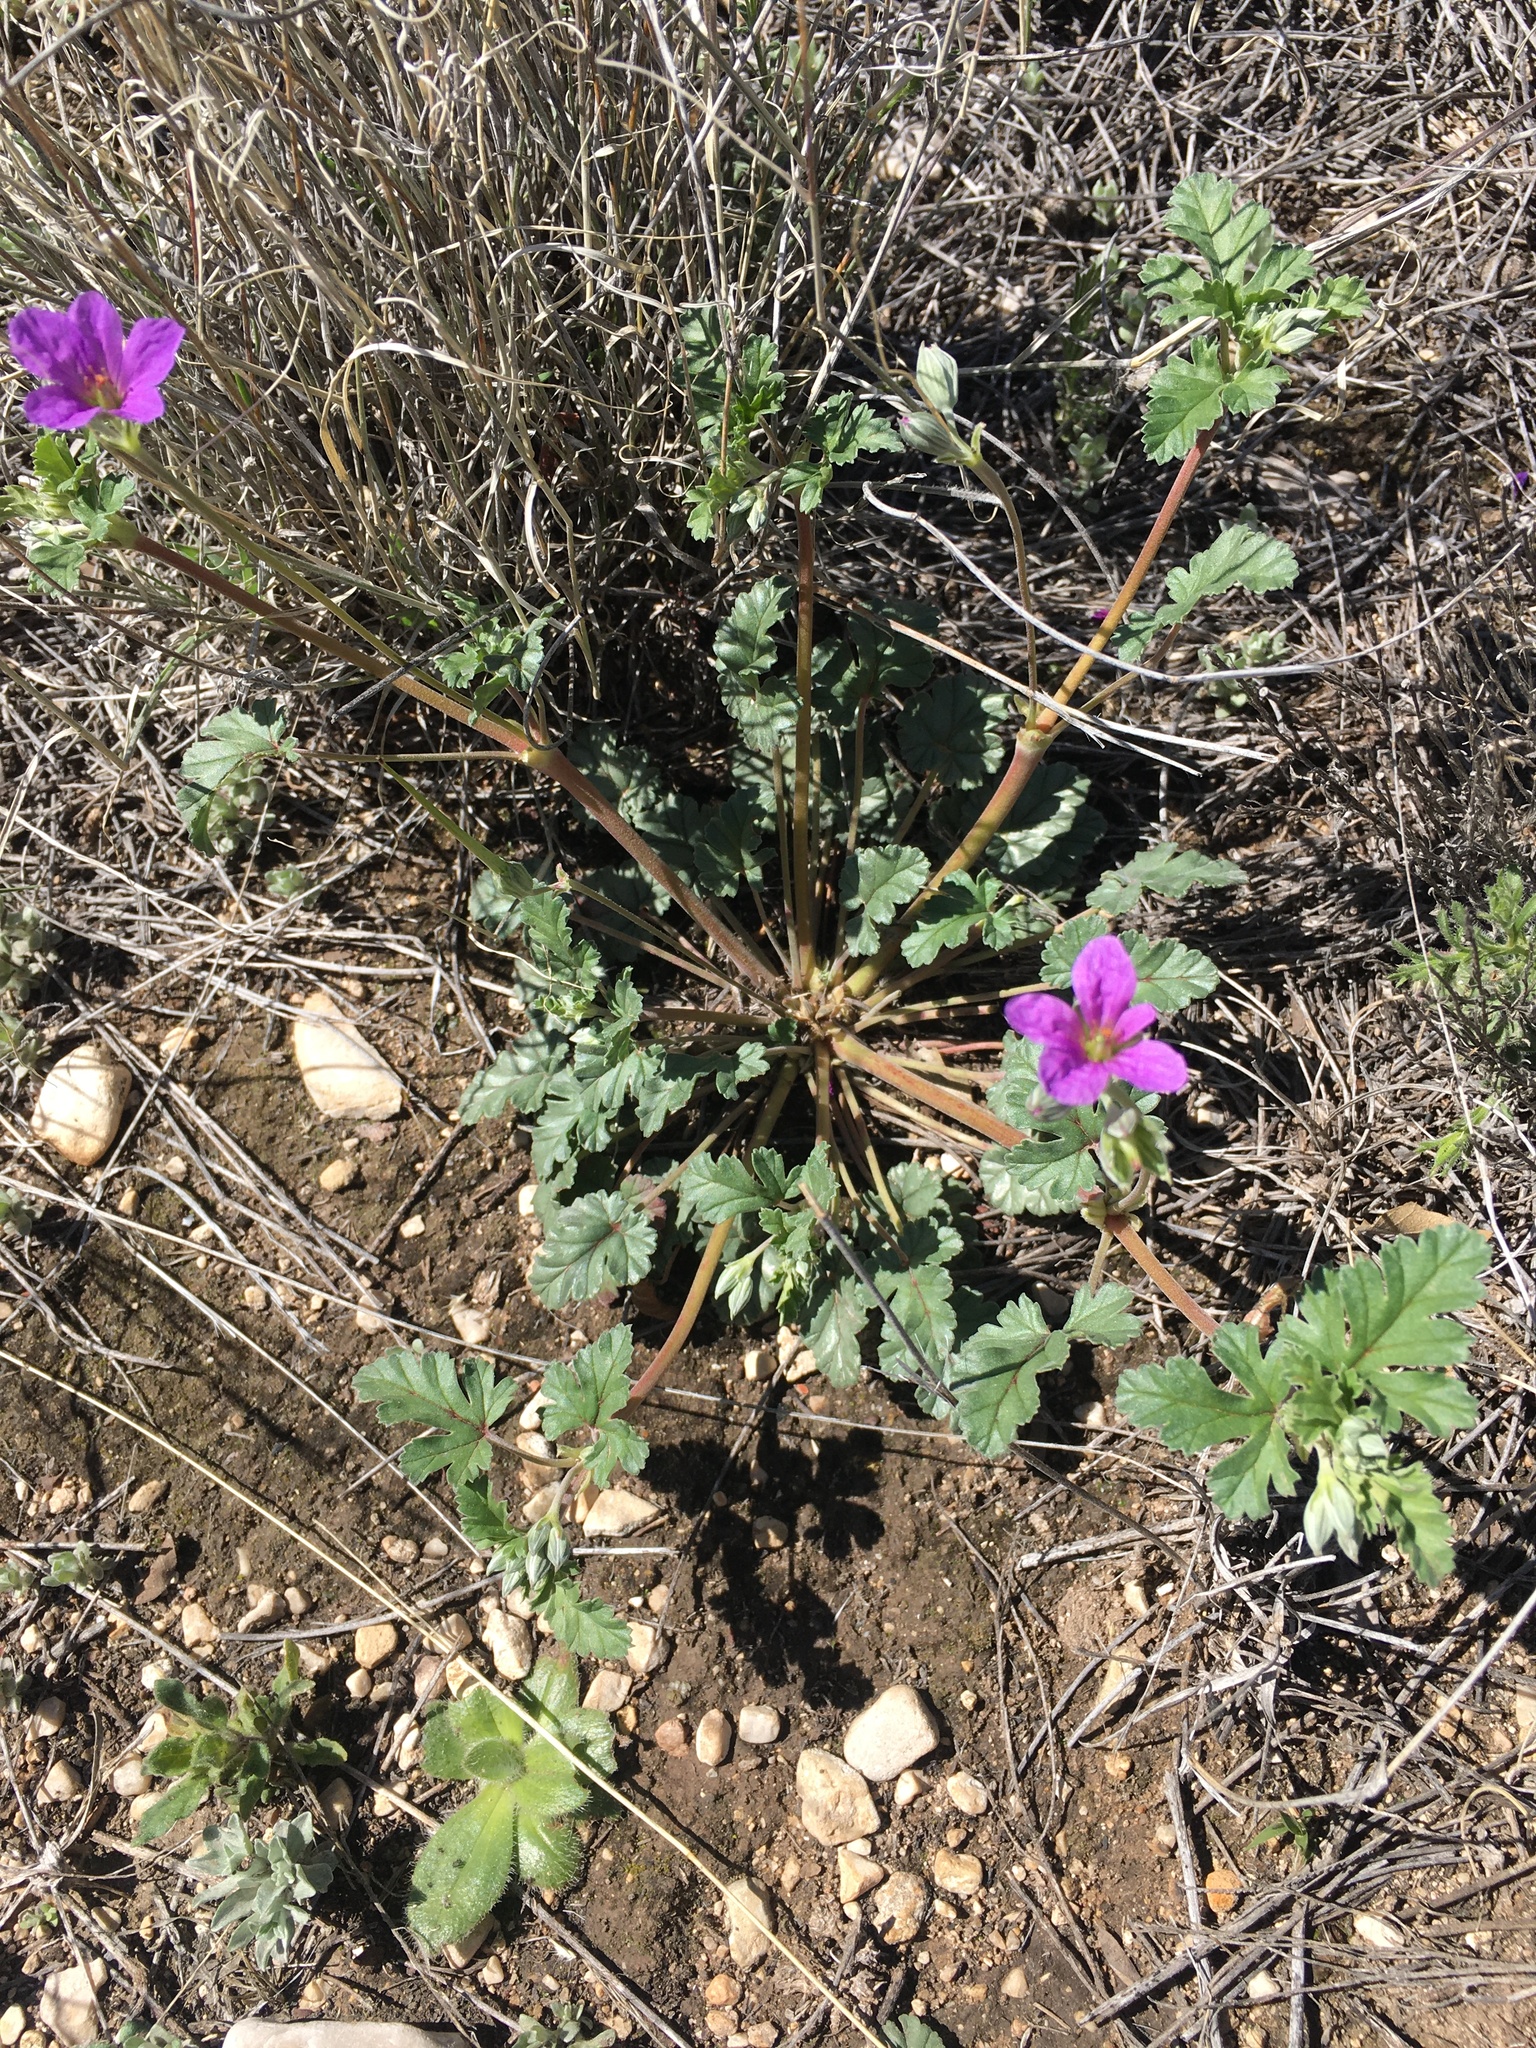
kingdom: Plantae
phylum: Tracheophyta
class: Magnoliopsida
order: Geraniales
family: Geraniaceae
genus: Erodium
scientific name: Erodium texanum
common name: Texas stork's-bill
